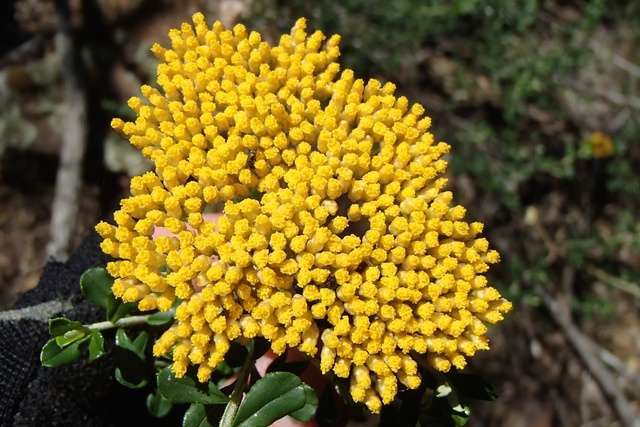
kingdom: Plantae
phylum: Tracheophyta
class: Magnoliopsida
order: Asterales
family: Asteraceae
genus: Ozothamnus
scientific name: Ozothamnus obcordatus
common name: Grey everlasting
